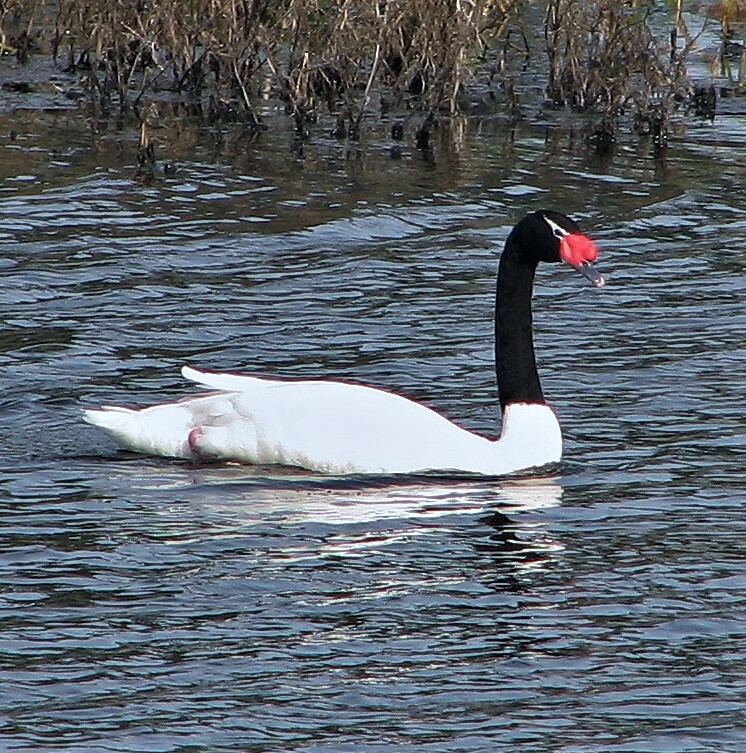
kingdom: Animalia
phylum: Chordata
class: Aves
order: Anseriformes
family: Anatidae
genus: Cygnus
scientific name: Cygnus melancoryphus
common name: Black-necked swan
